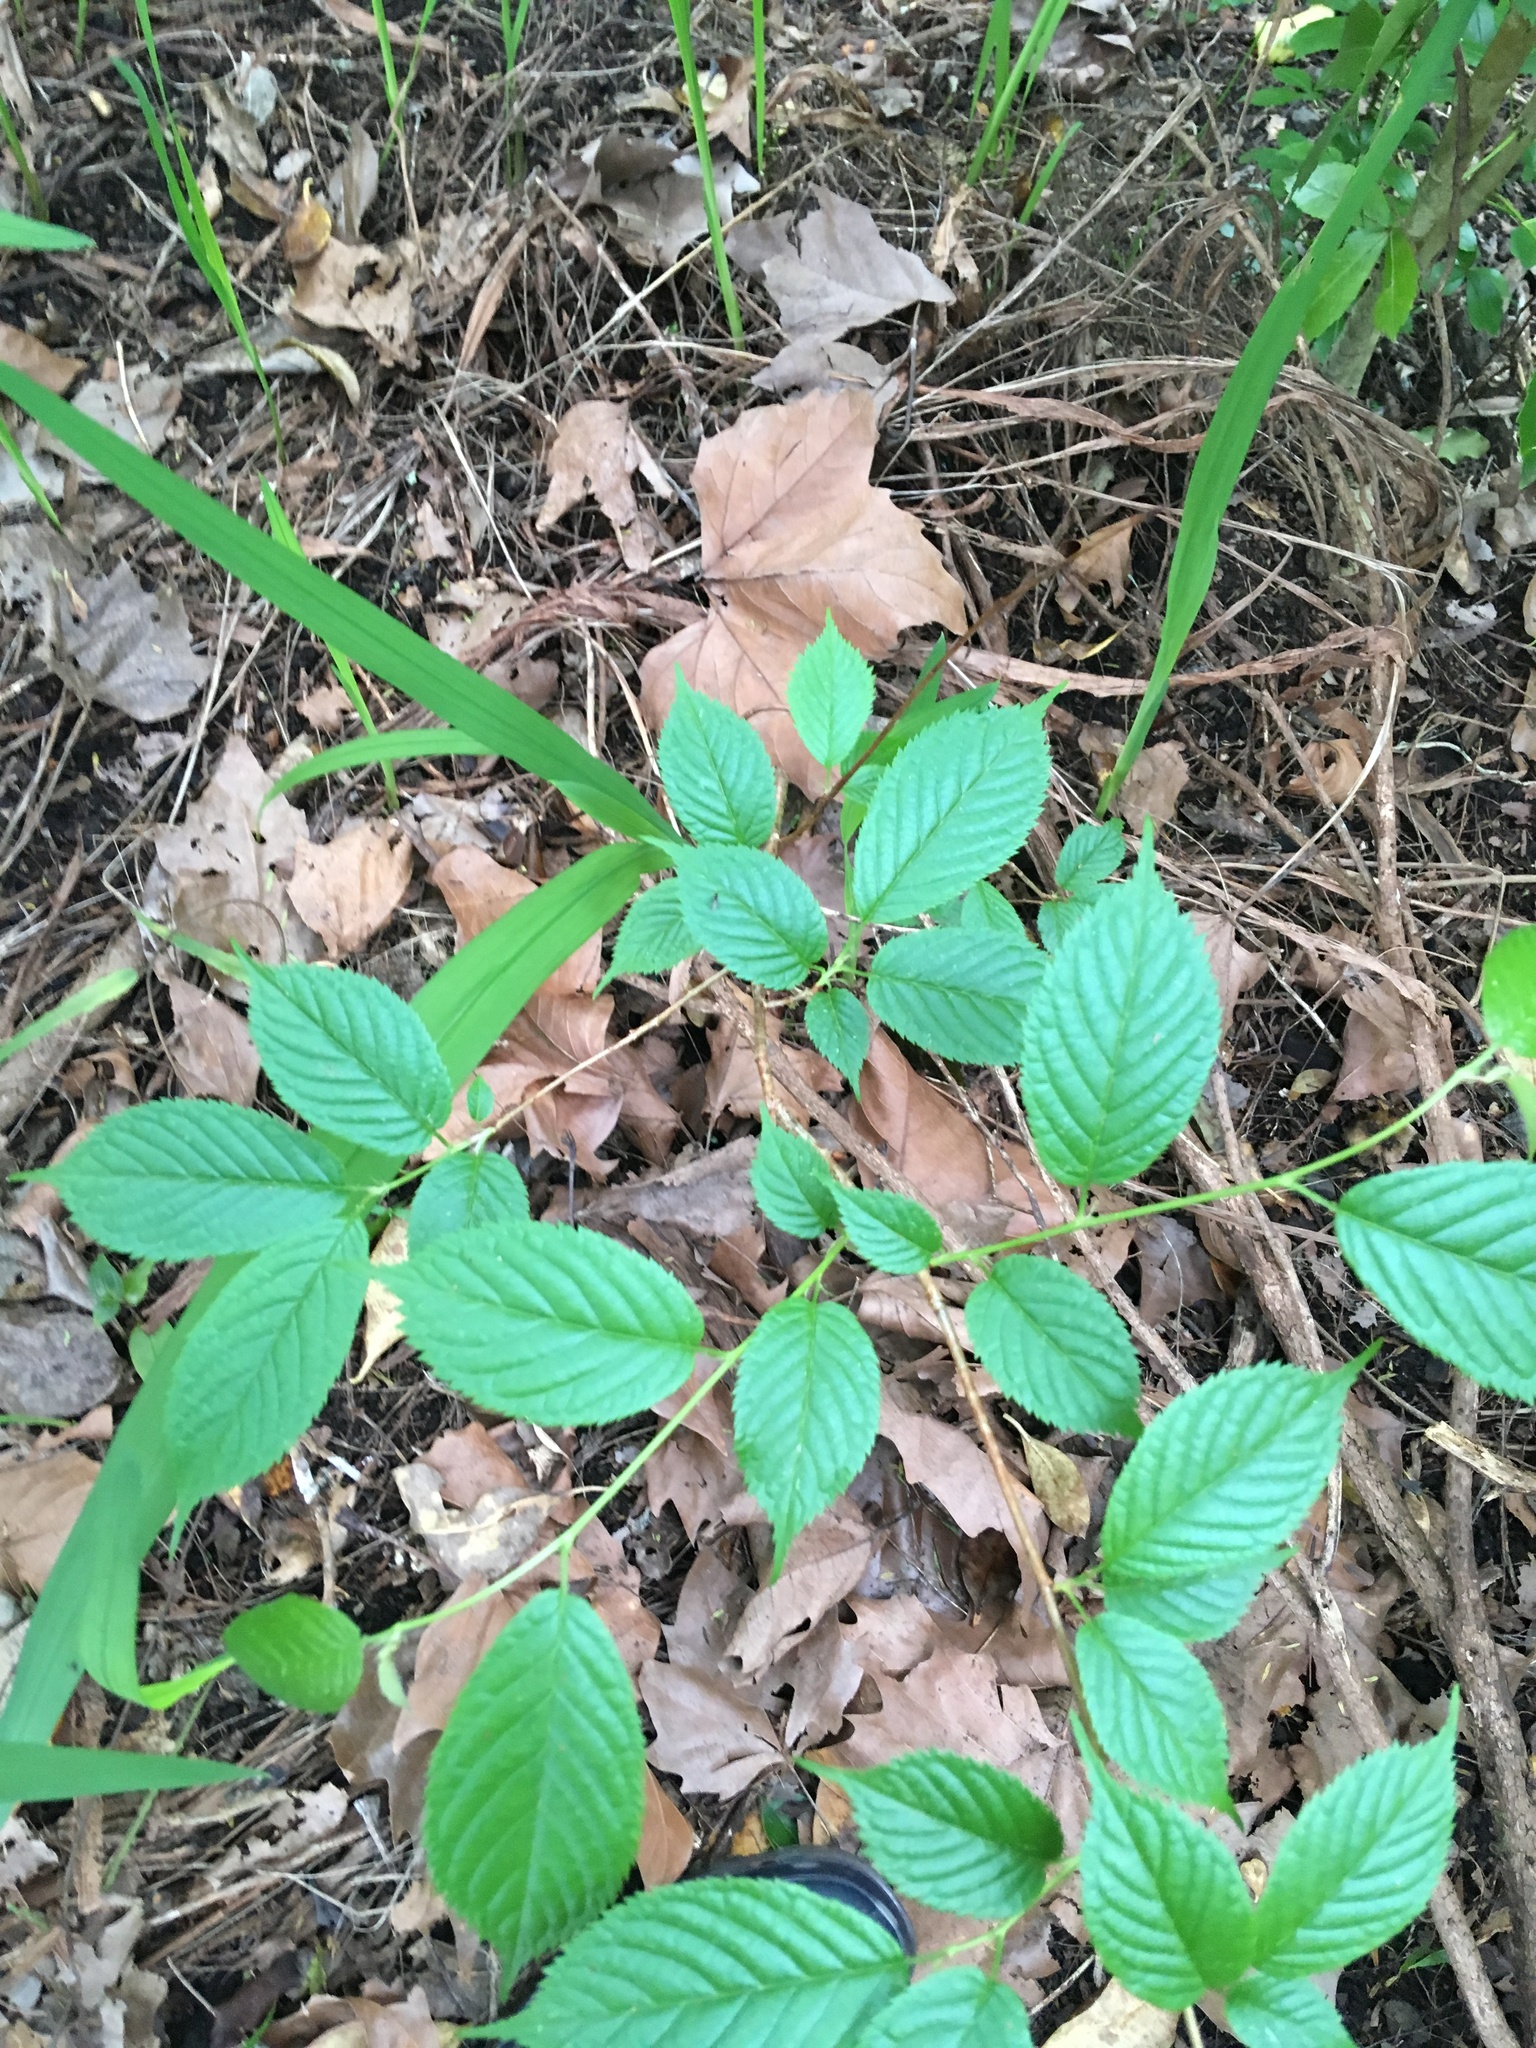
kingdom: Plantae
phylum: Tracheophyta
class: Magnoliopsida
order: Rosales
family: Rosaceae
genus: Prunus
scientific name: Prunus serrulata
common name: Japanese cherry
